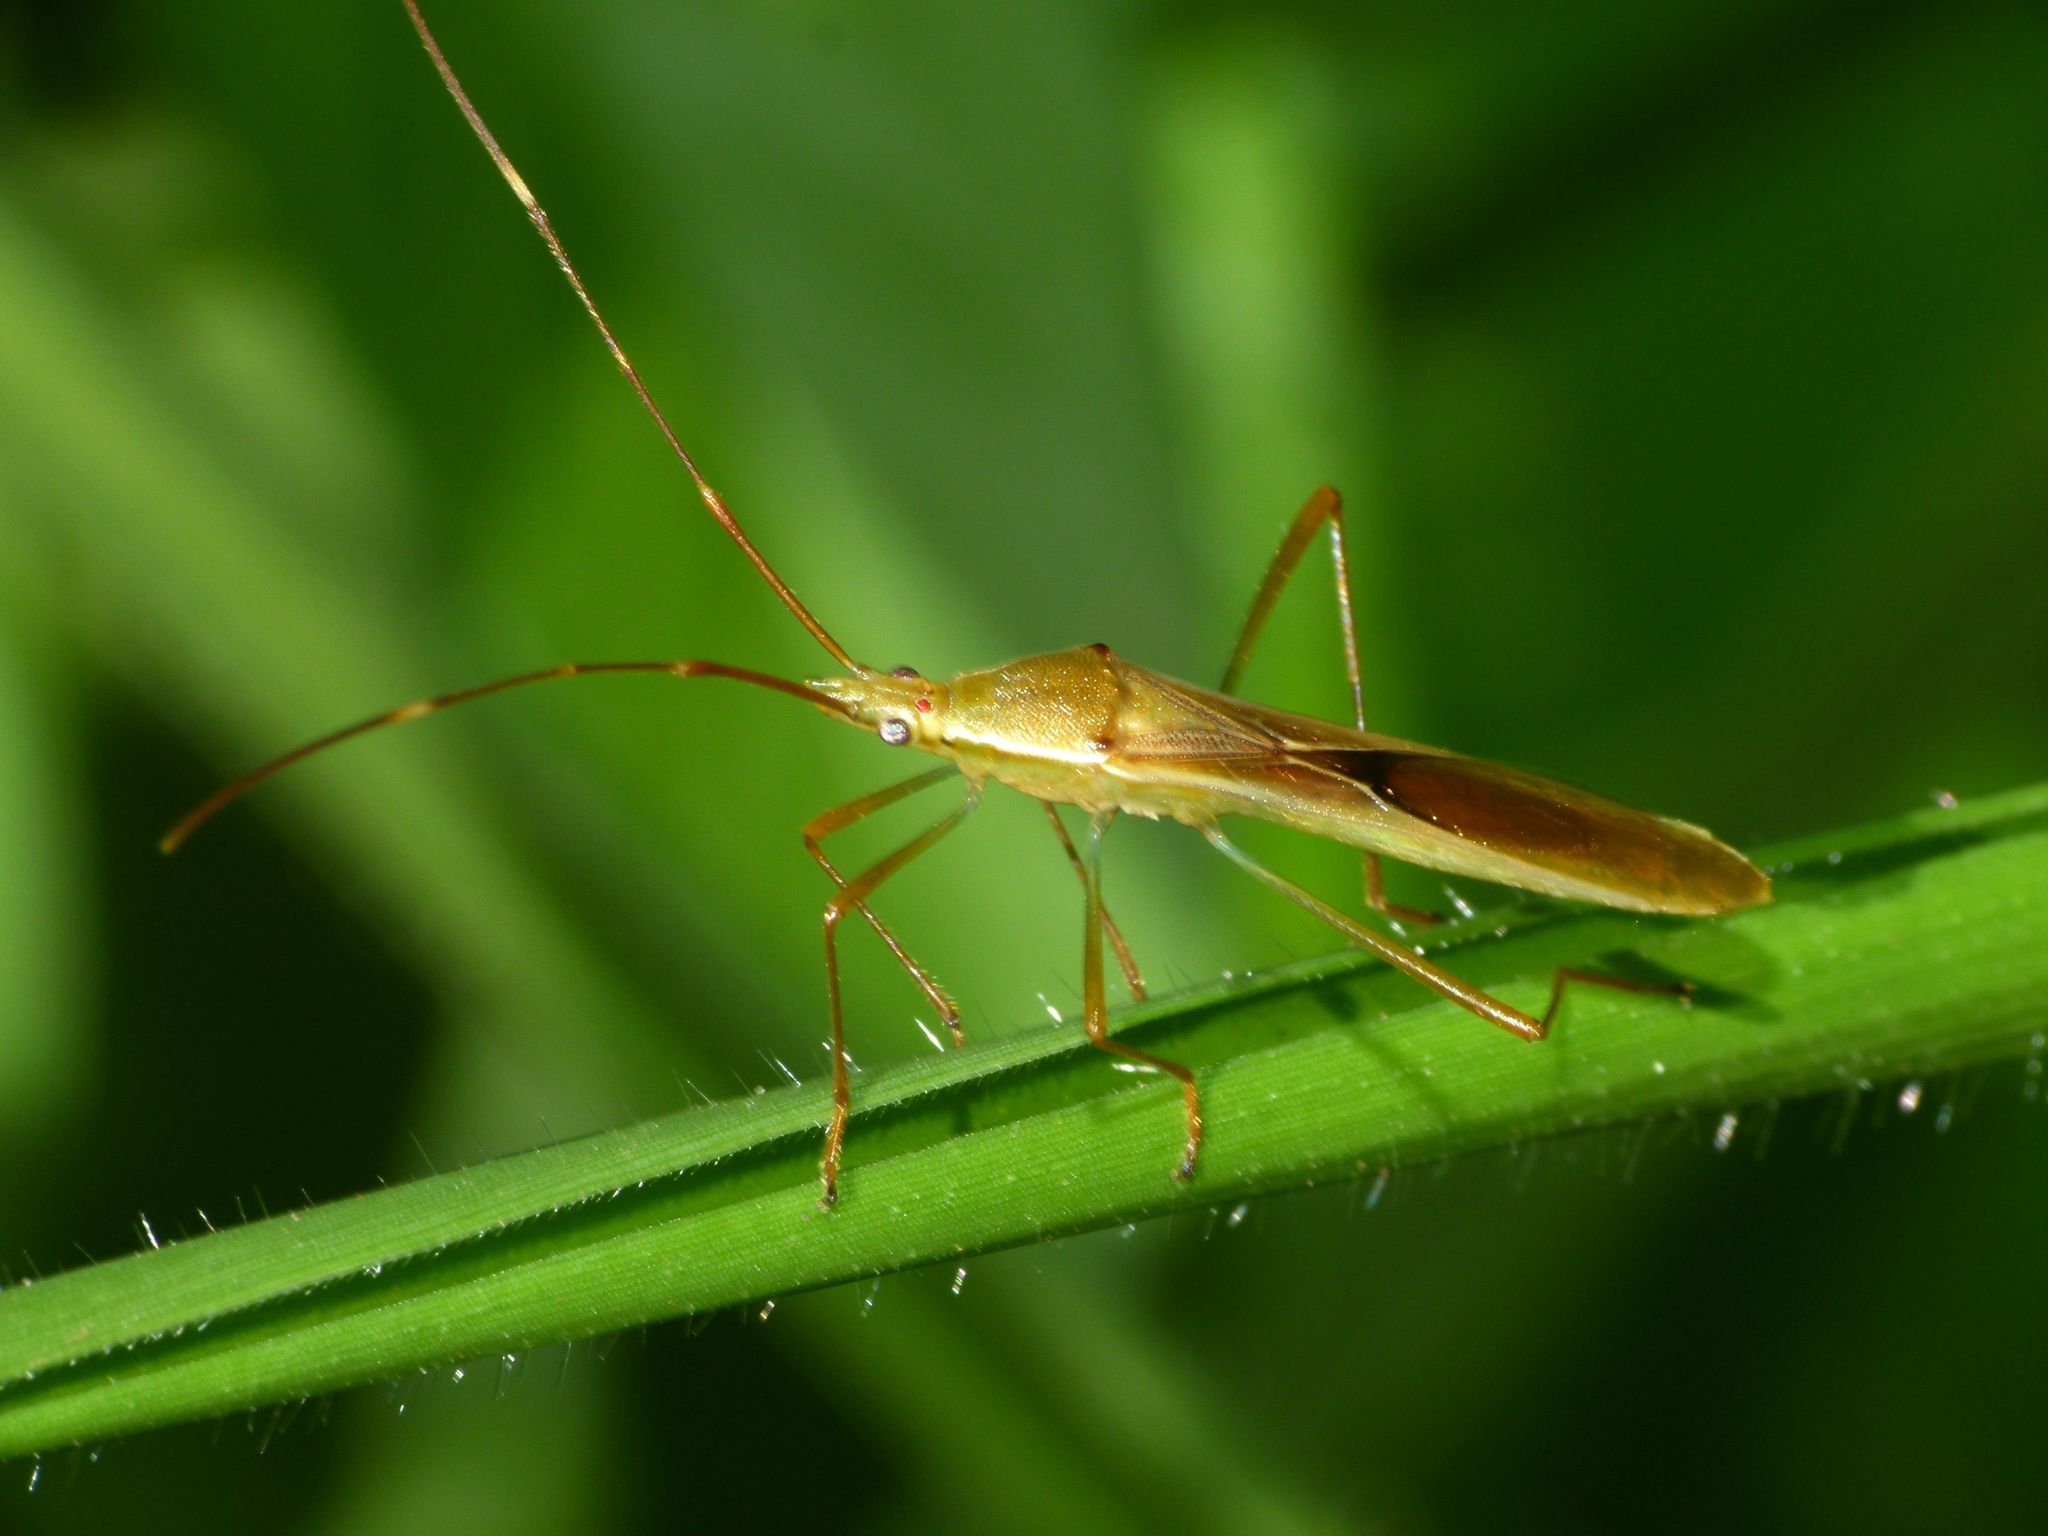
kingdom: Animalia
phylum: Arthropoda
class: Insecta
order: Hemiptera
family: Alydidae
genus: Leptocorisa
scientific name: Leptocorisa acuta
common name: Gandhi bug
